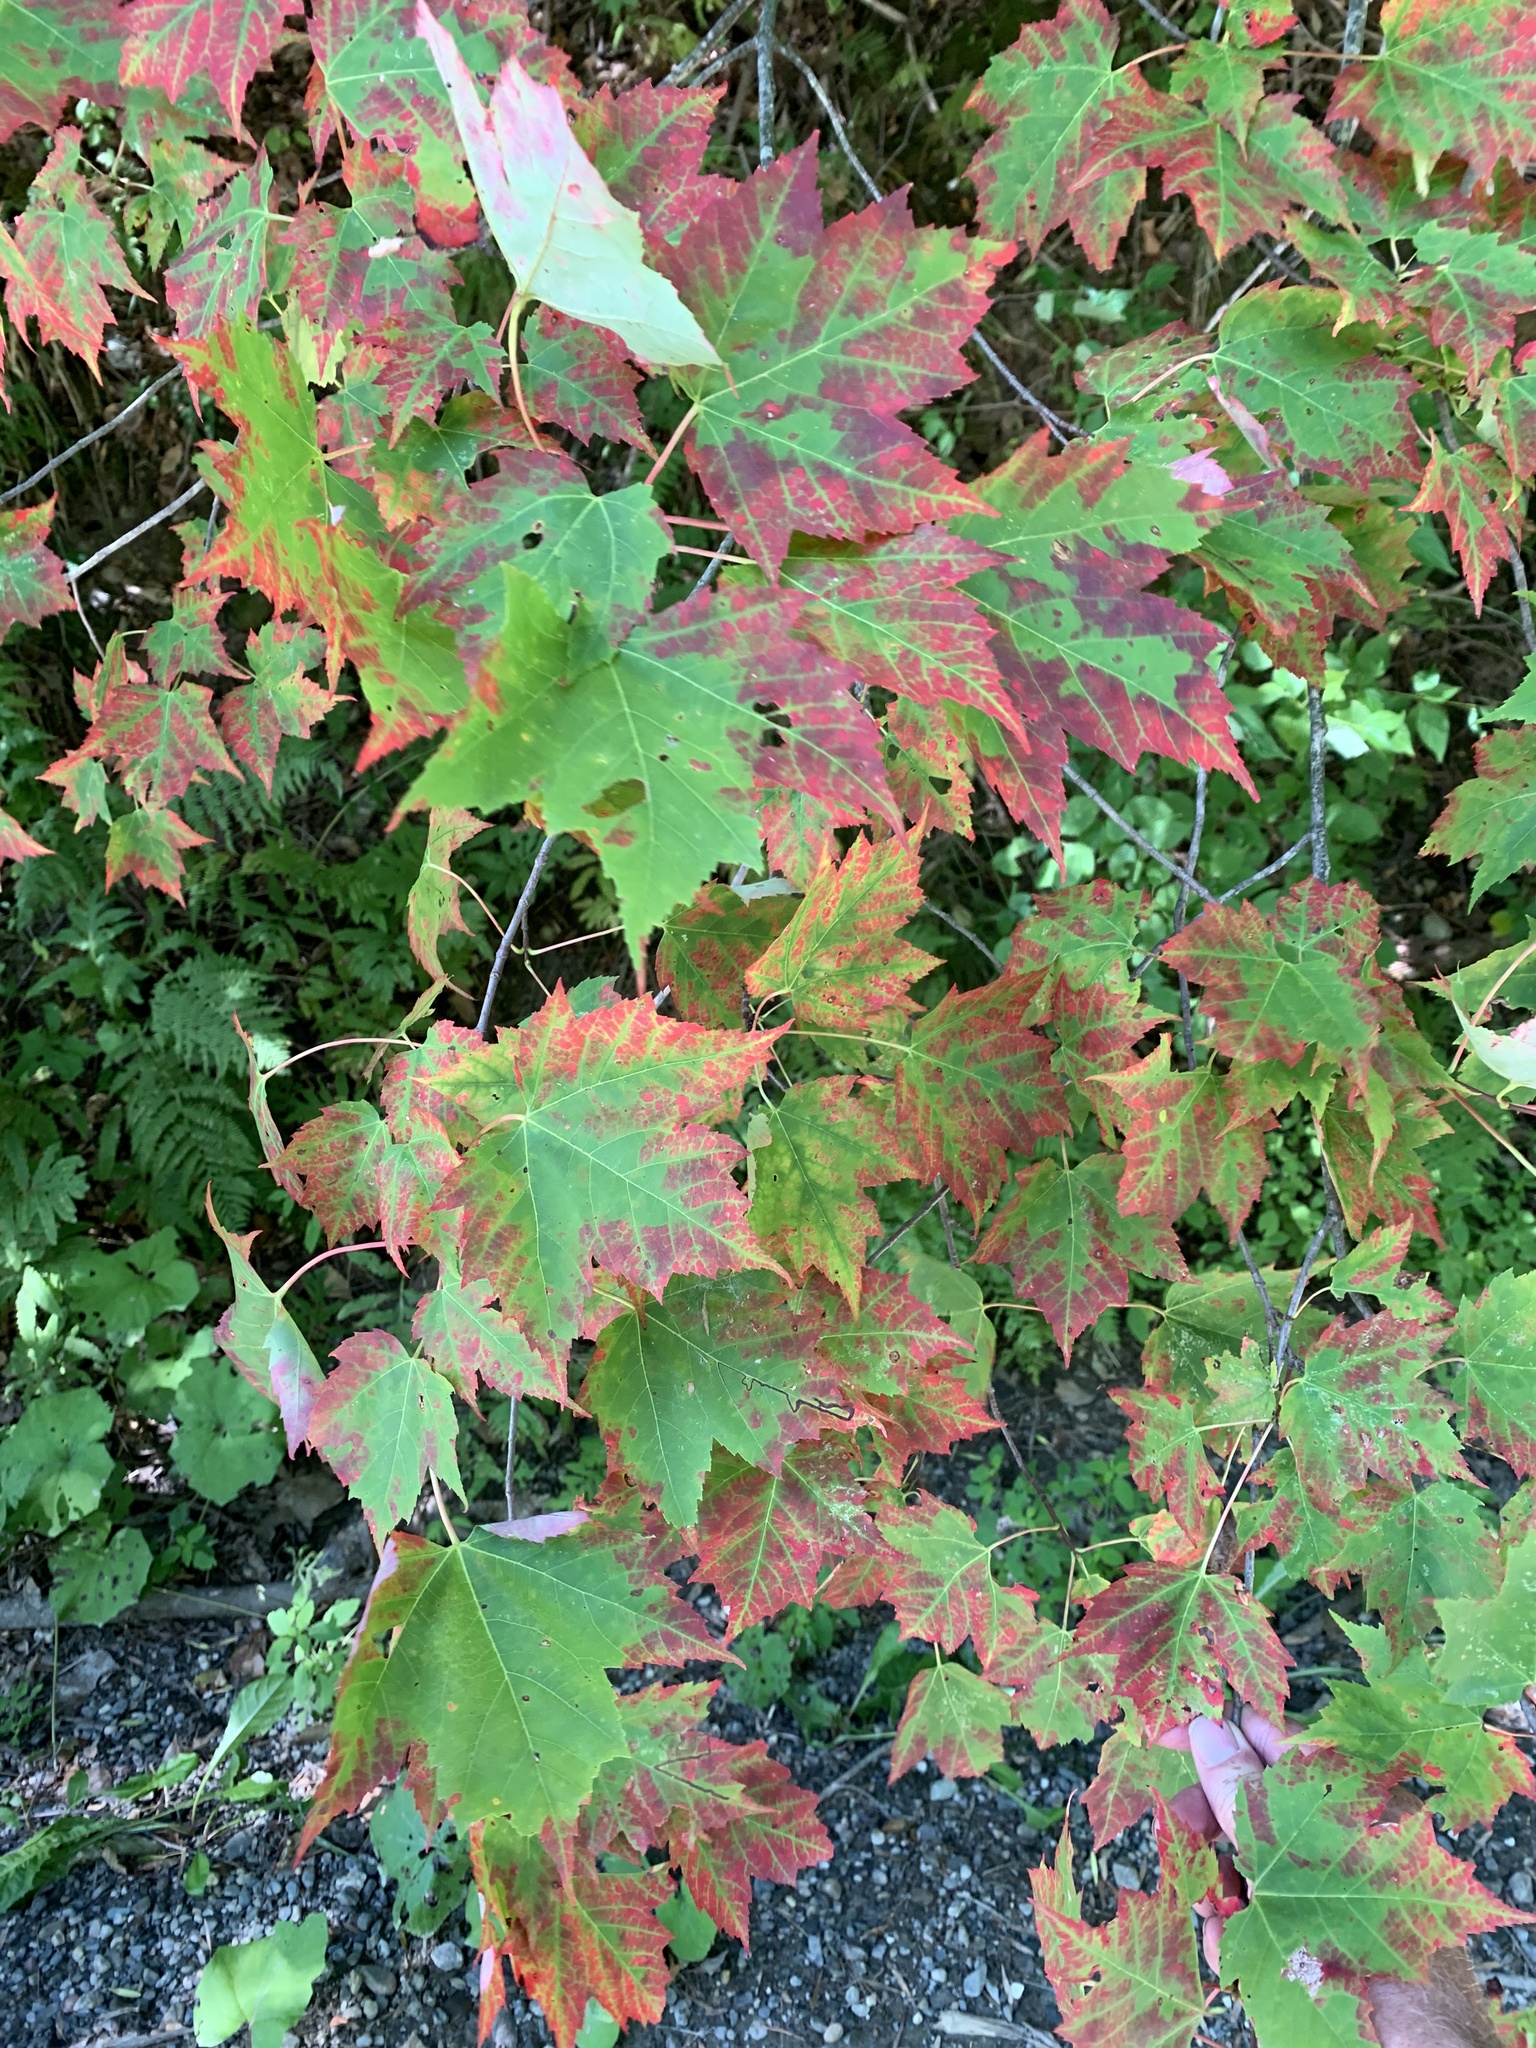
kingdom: Plantae
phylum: Tracheophyta
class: Magnoliopsida
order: Sapindales
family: Sapindaceae
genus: Acer
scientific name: Acer rubrum
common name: Red maple
